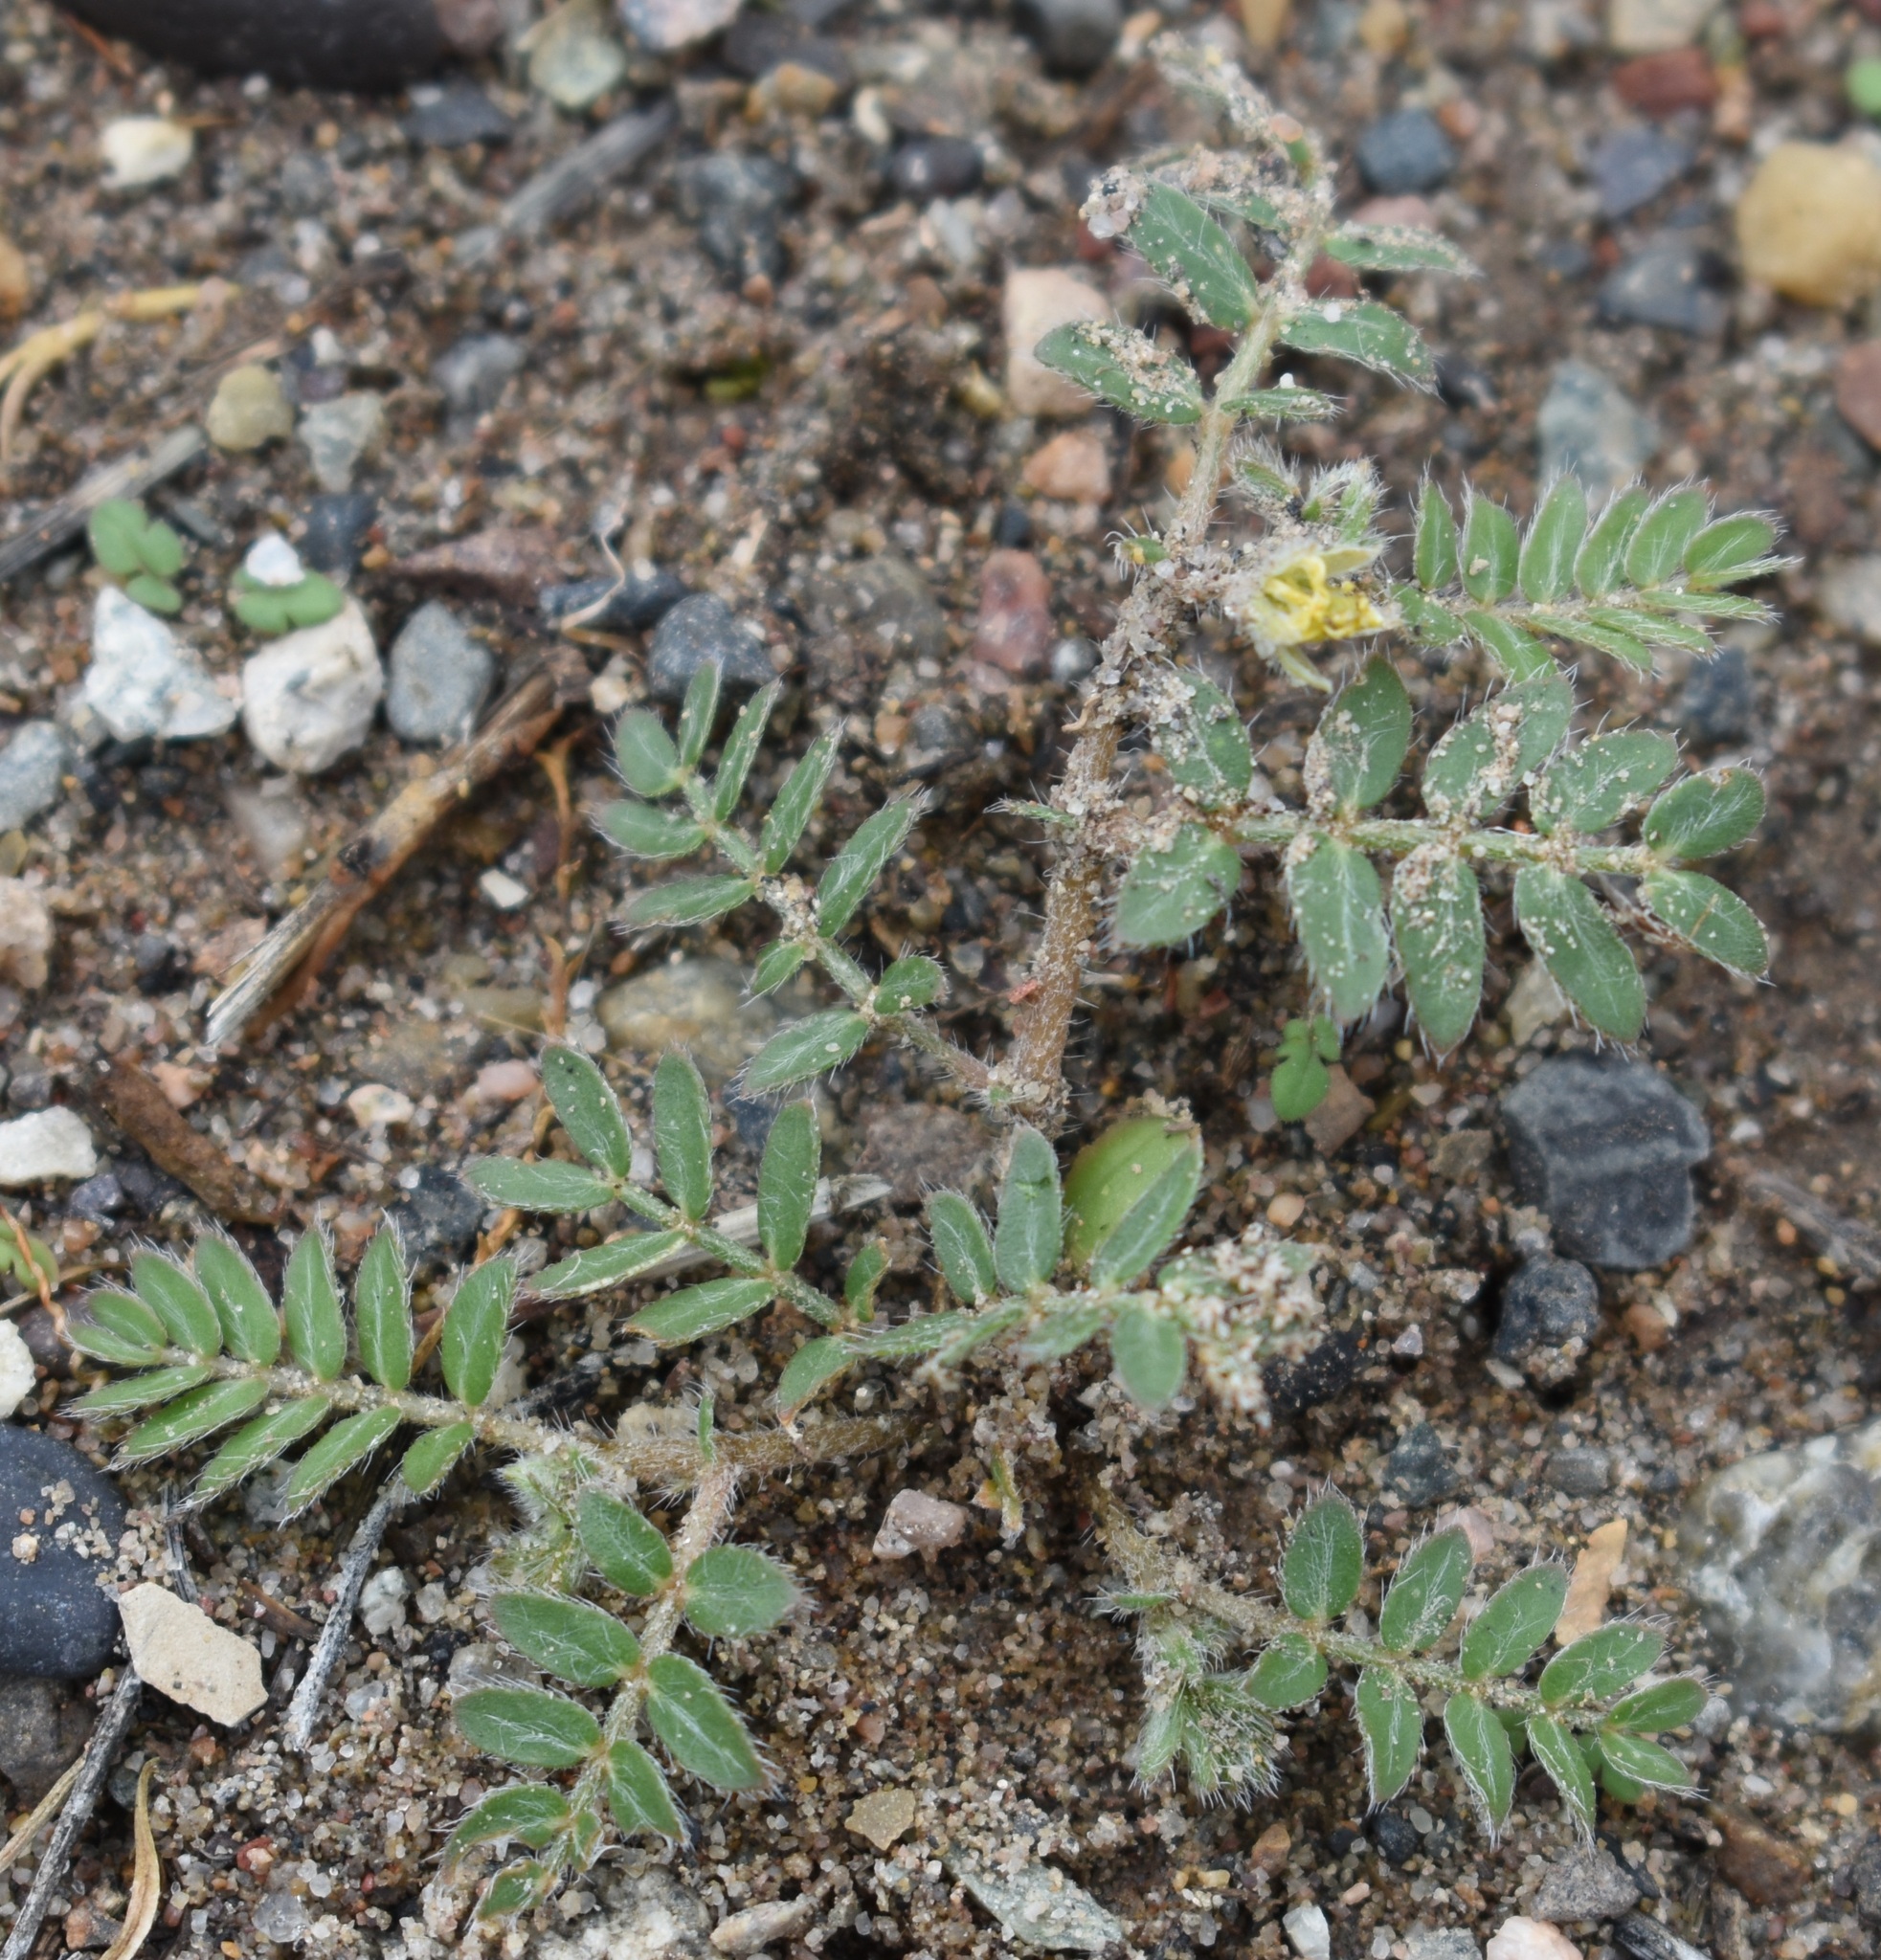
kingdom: Plantae
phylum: Tracheophyta
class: Magnoliopsida
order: Zygophyllales
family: Zygophyllaceae
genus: Tribulus
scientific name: Tribulus terrestris
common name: Puncturevine
